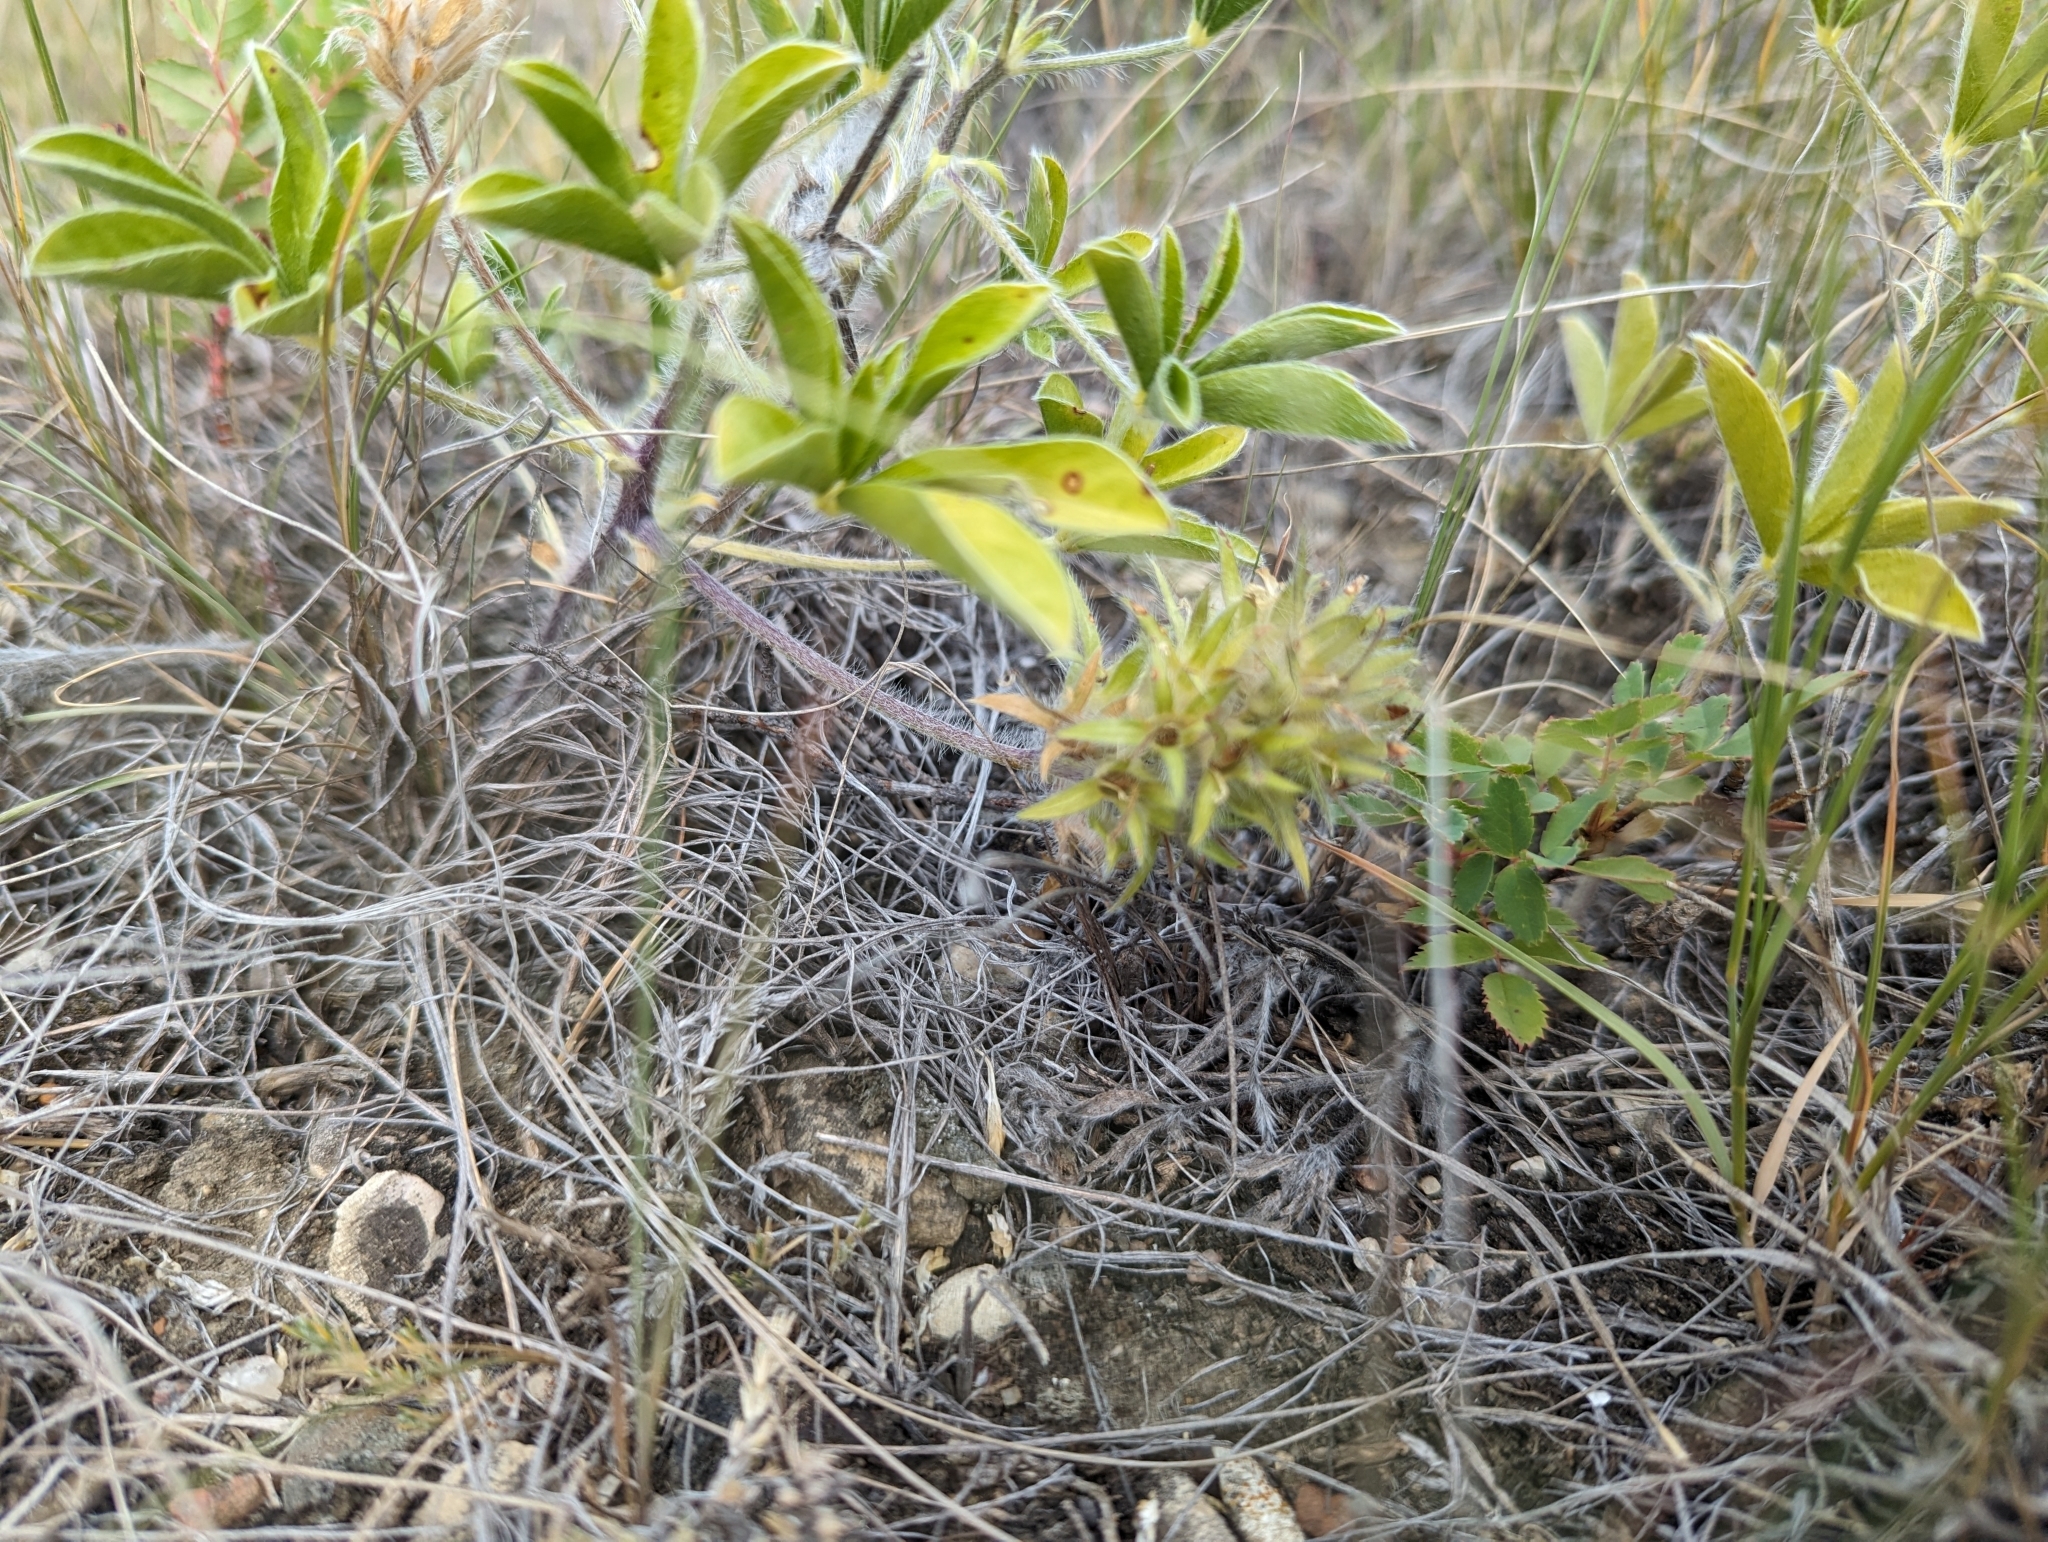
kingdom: Plantae
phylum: Tracheophyta
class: Magnoliopsida
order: Fabales
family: Fabaceae
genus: Pediomelum
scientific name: Pediomelum esculentum
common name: Indian-turnip
